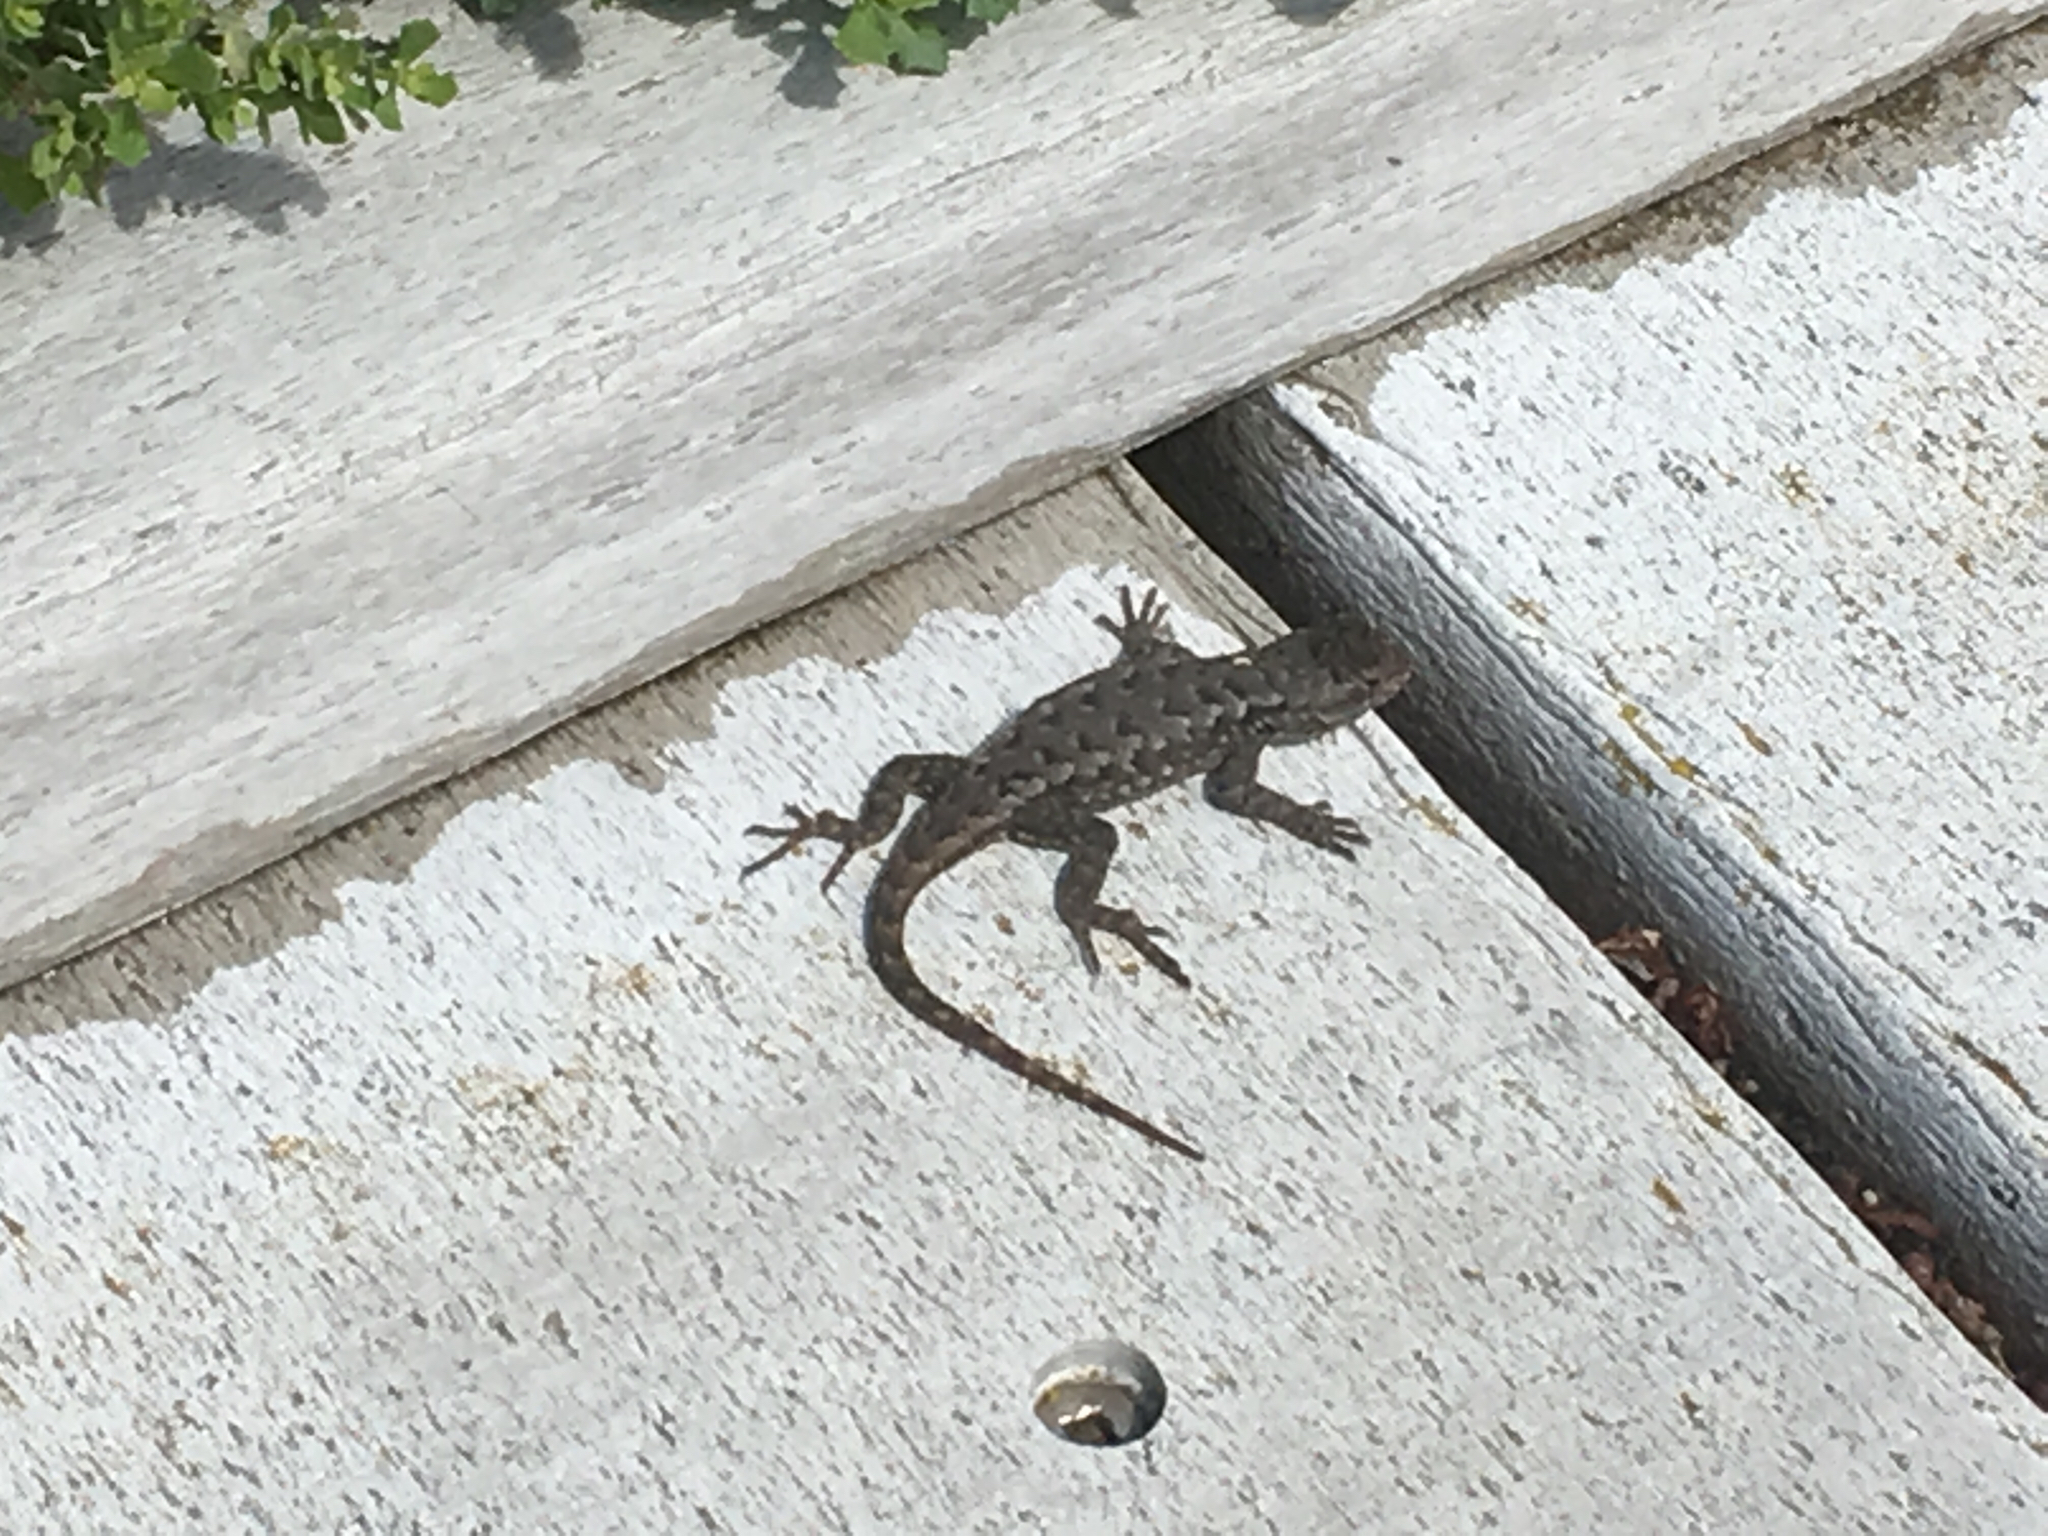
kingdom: Animalia
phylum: Chordata
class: Squamata
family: Phrynosomatidae
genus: Sceloporus
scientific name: Sceloporus occidentalis
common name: Western fence lizard
